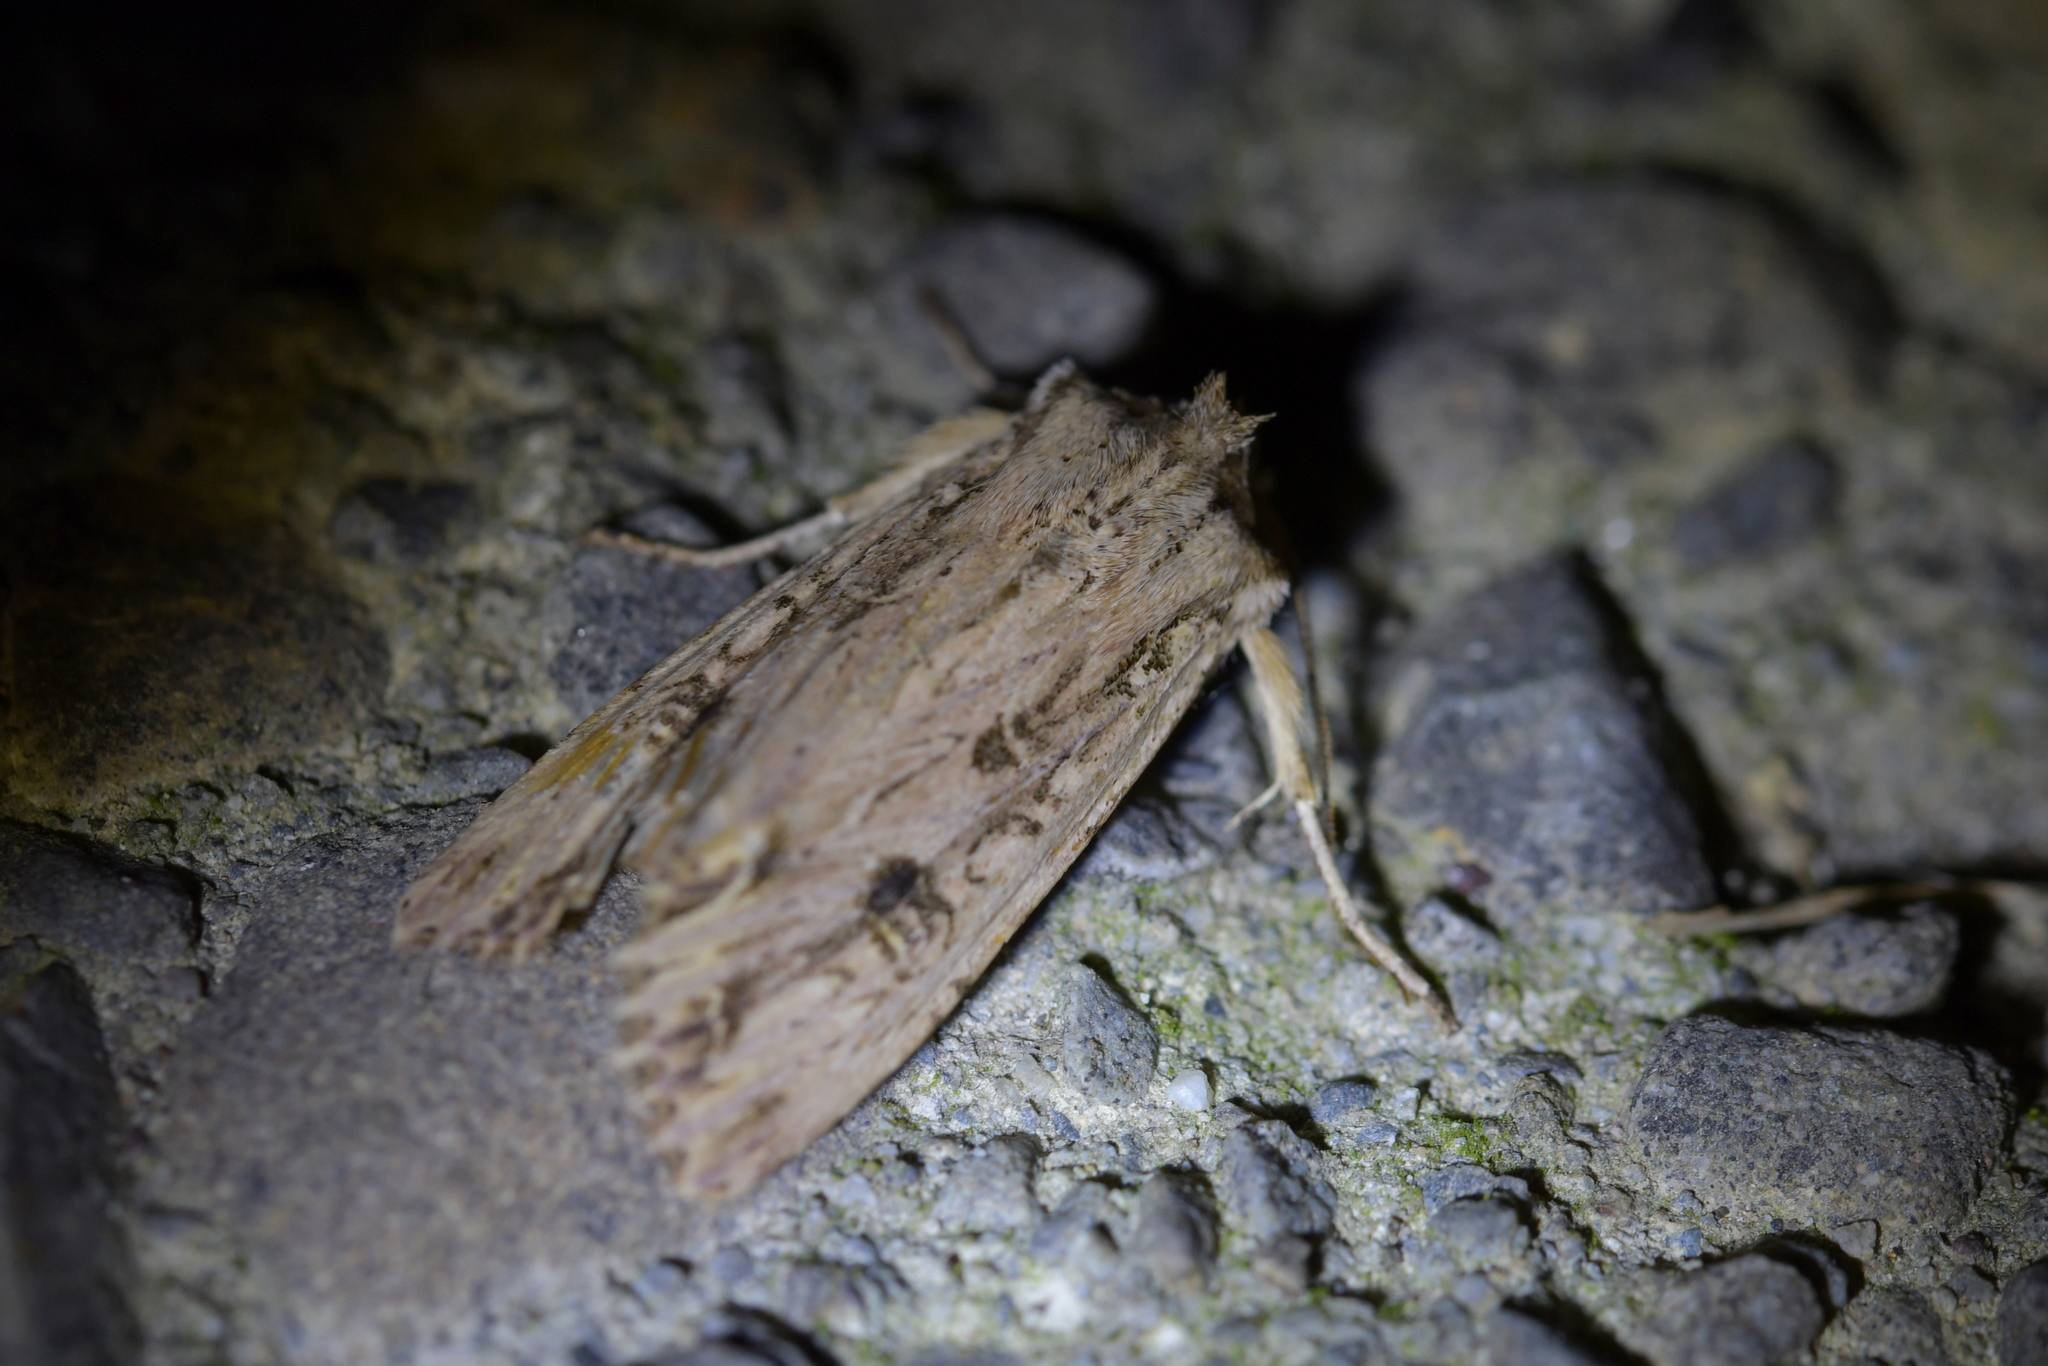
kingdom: Animalia
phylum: Arthropoda
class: Insecta
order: Lepidoptera
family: Noctuidae
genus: Ichneutica
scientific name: Ichneutica lignana
